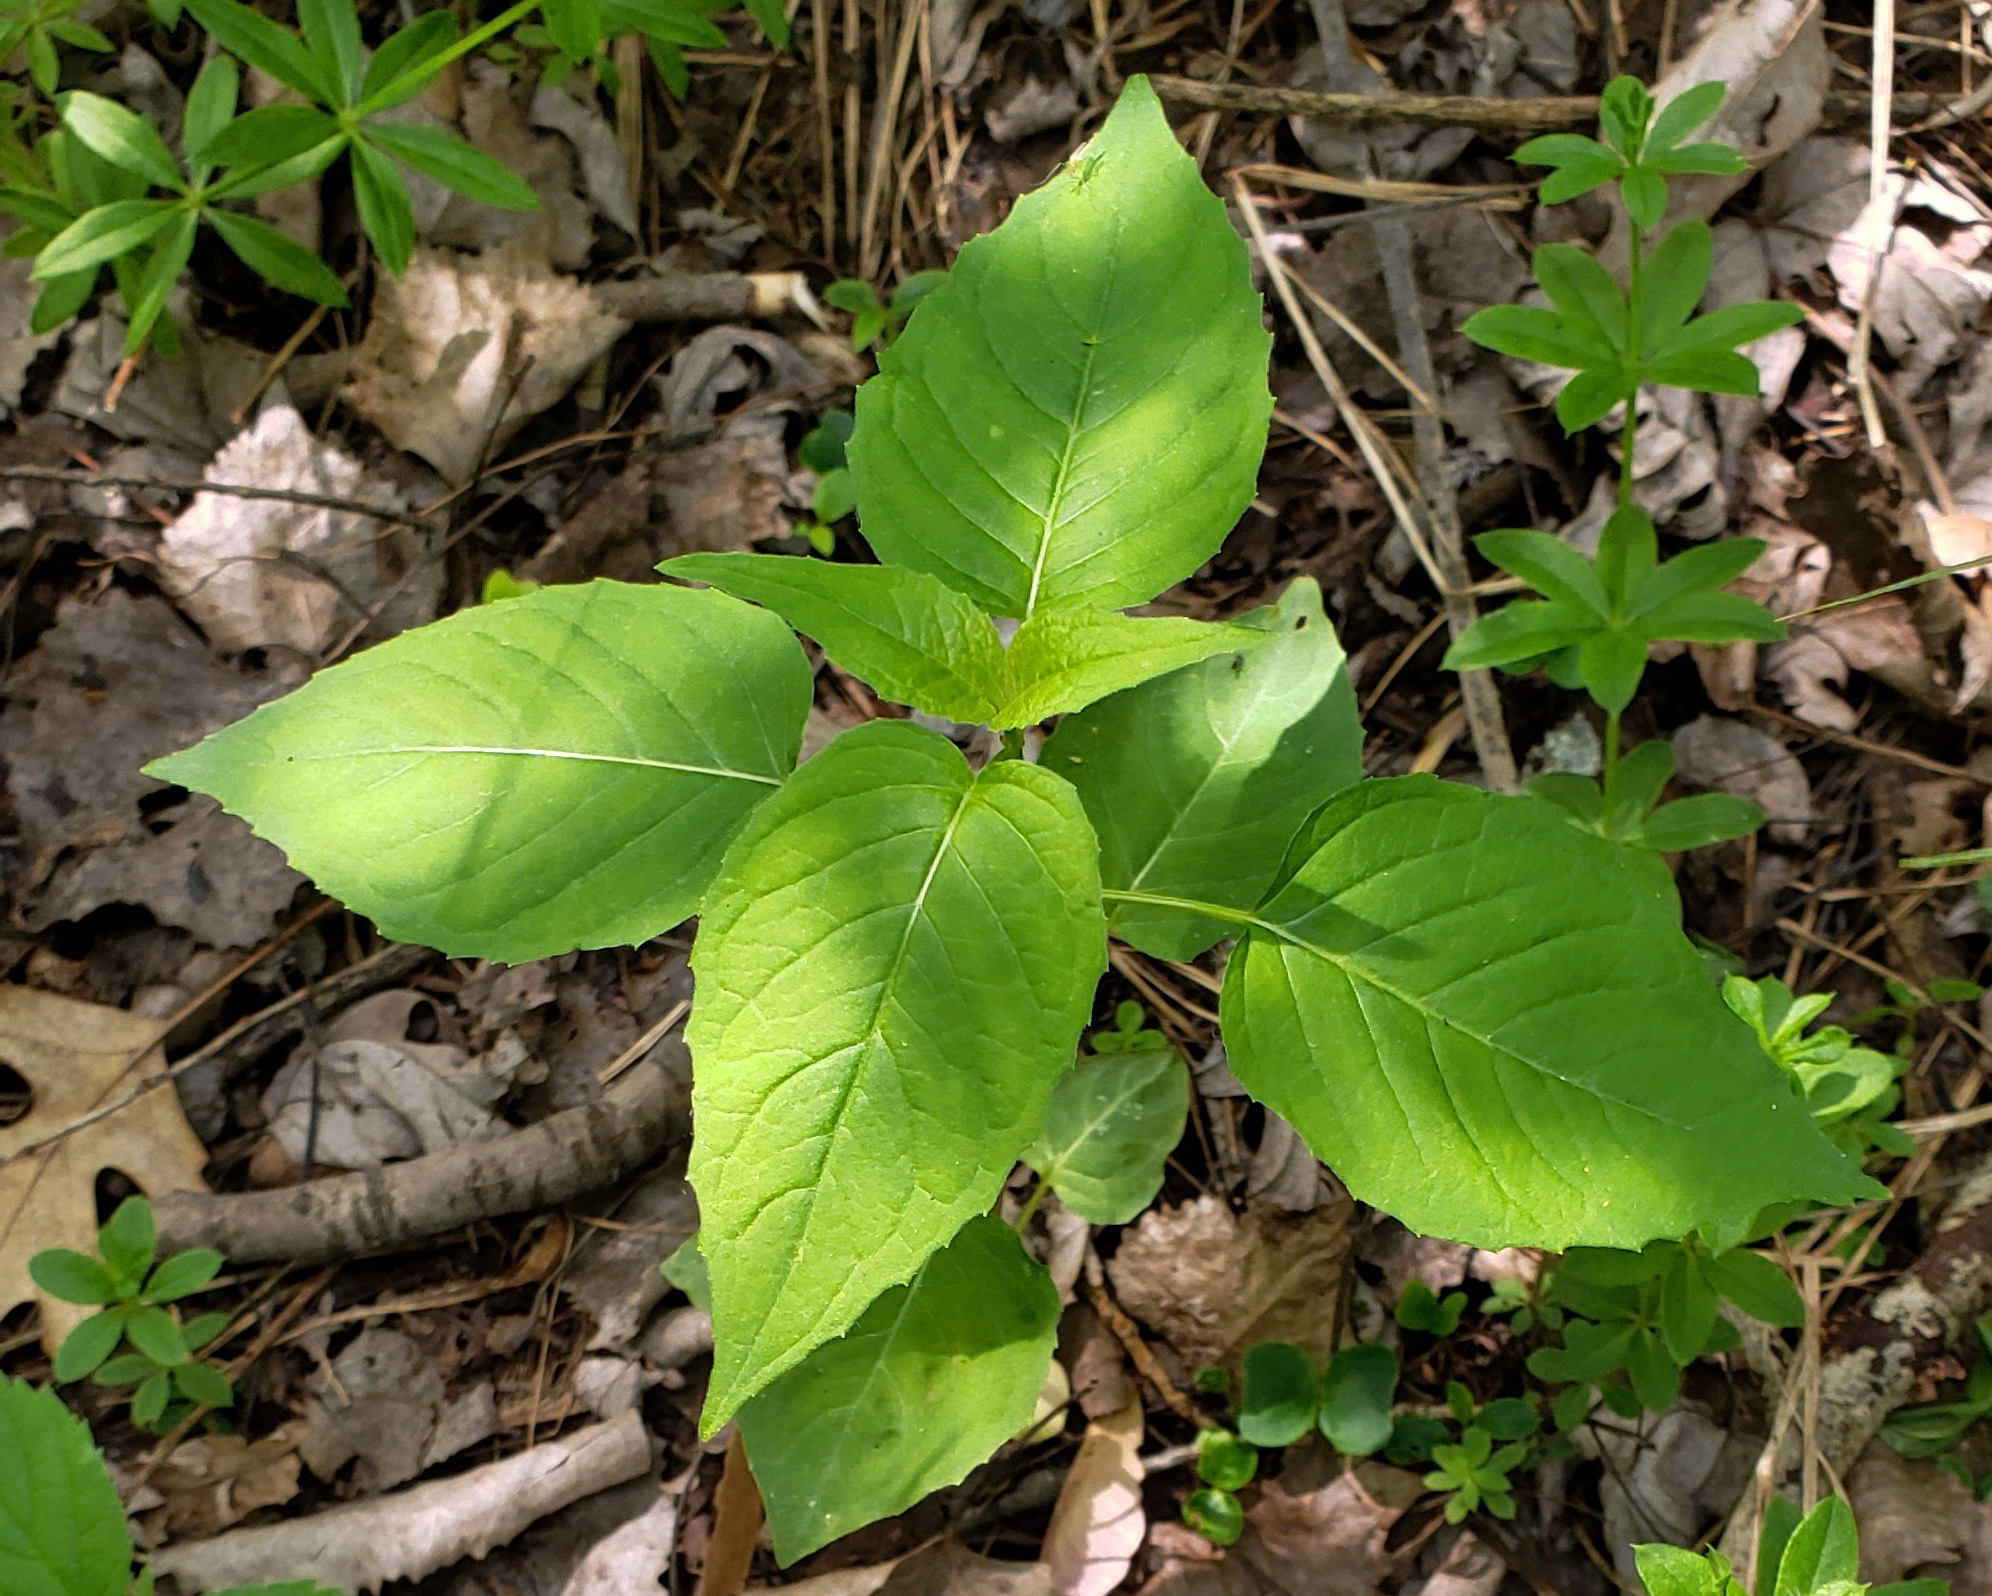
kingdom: Plantae
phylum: Tracheophyta
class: Magnoliopsida
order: Myrtales
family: Onagraceae
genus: Circaea
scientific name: Circaea canadensis
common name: Broad-leaved enchanter's nightshade
